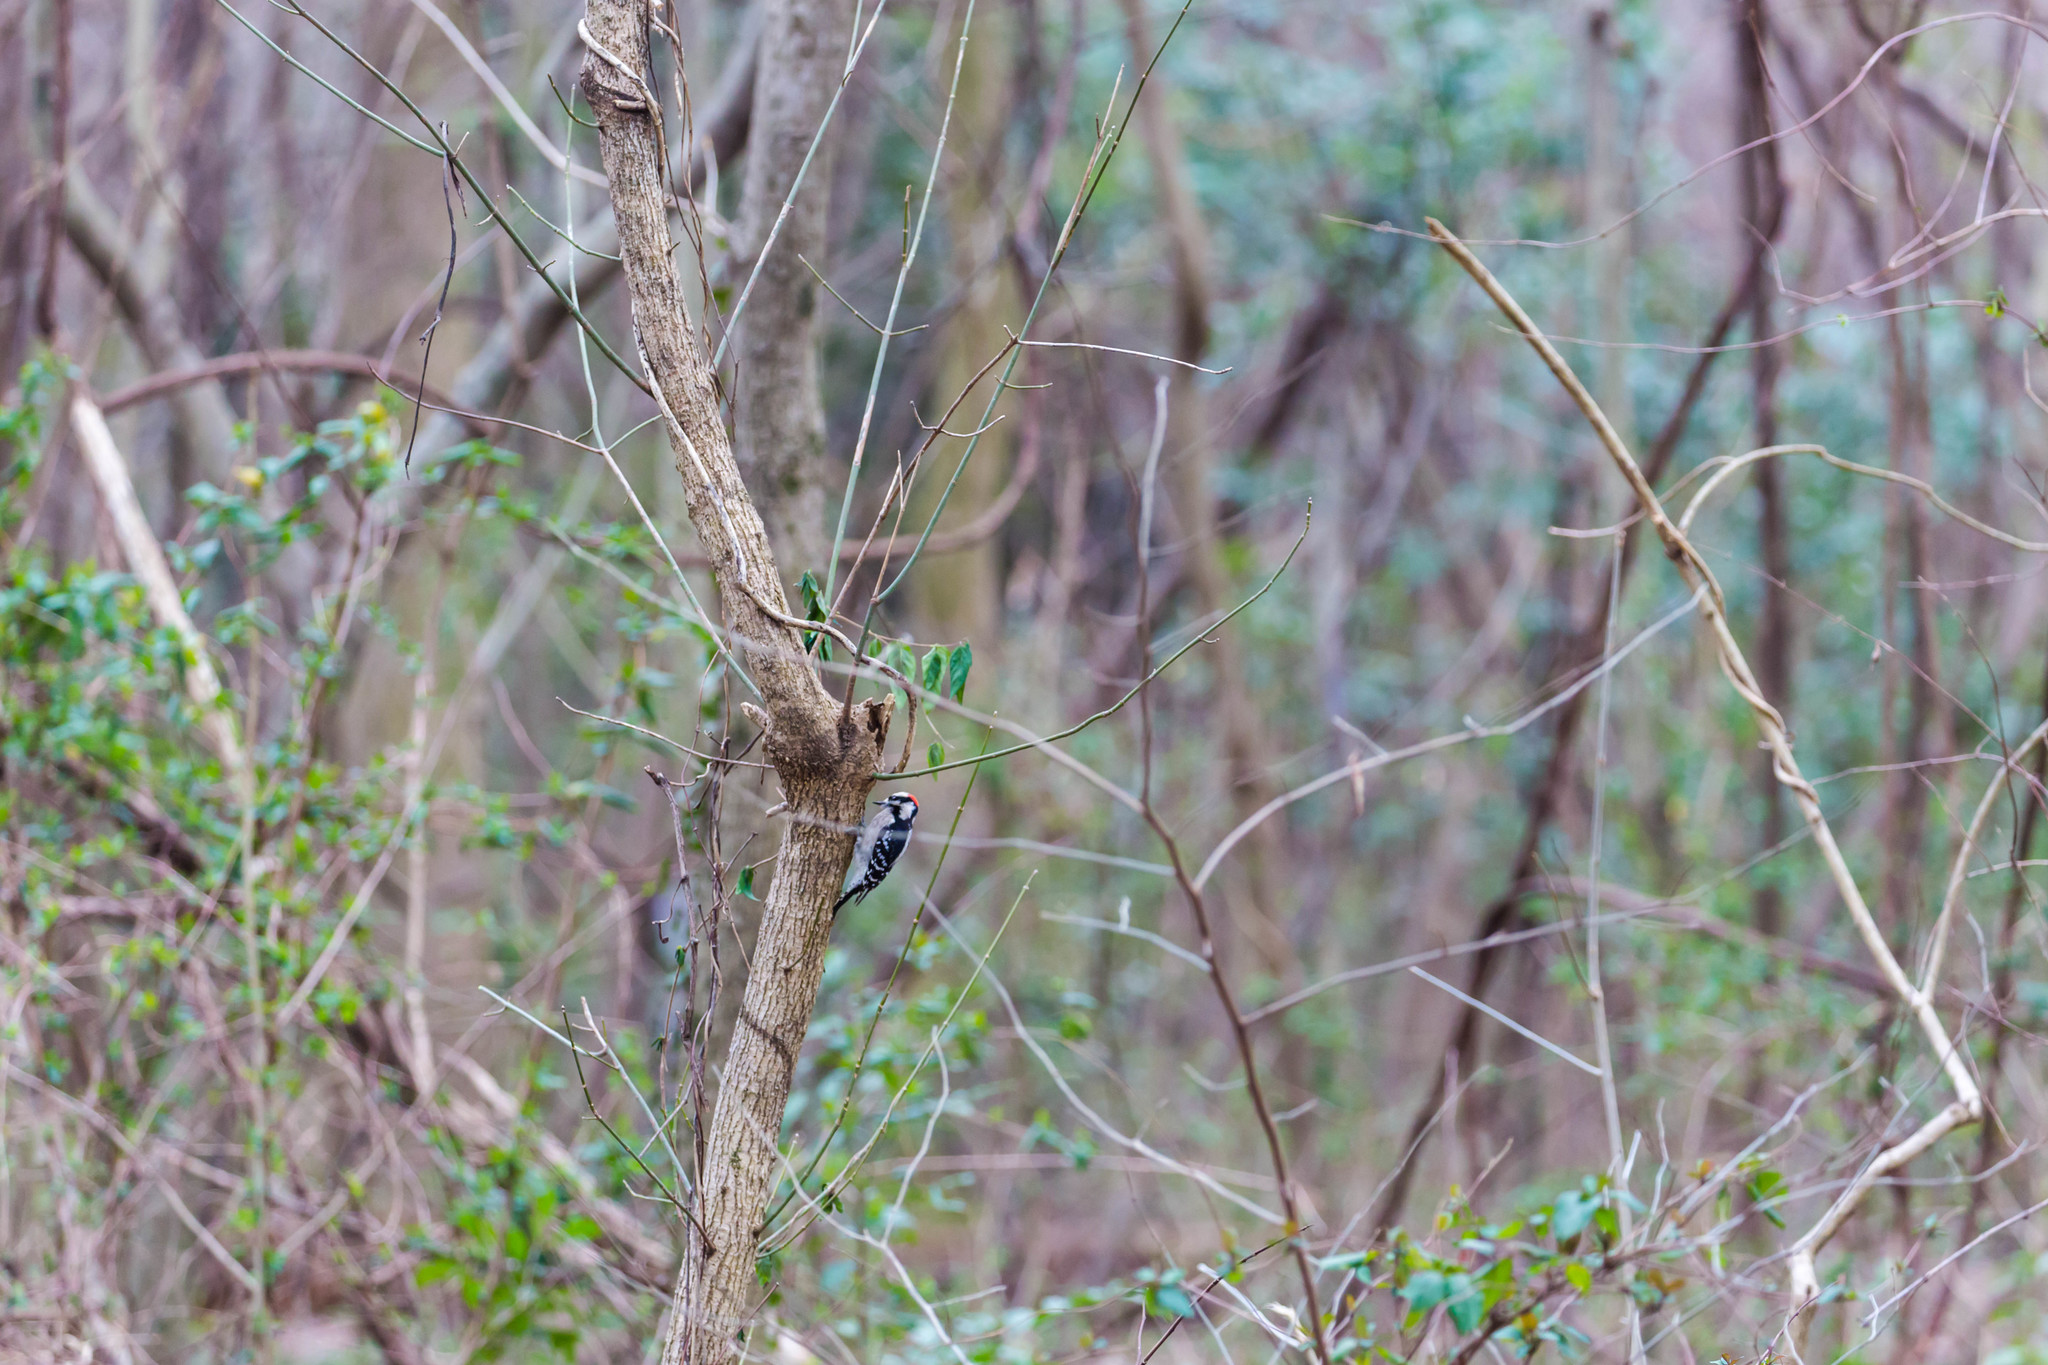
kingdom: Animalia
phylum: Chordata
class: Aves
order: Piciformes
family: Picidae
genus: Dryobates
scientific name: Dryobates pubescens
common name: Downy woodpecker
